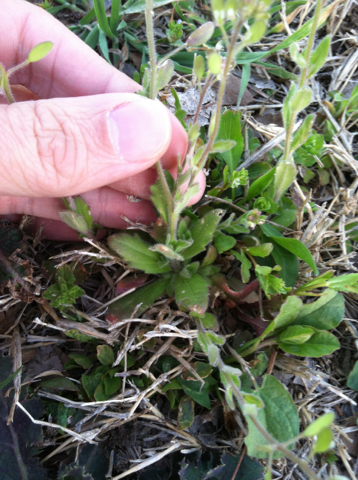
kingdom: Plantae
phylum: Tracheophyta
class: Magnoliopsida
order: Brassicales
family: Brassicaceae
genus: Tomostima
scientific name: Tomostima platycarpa
